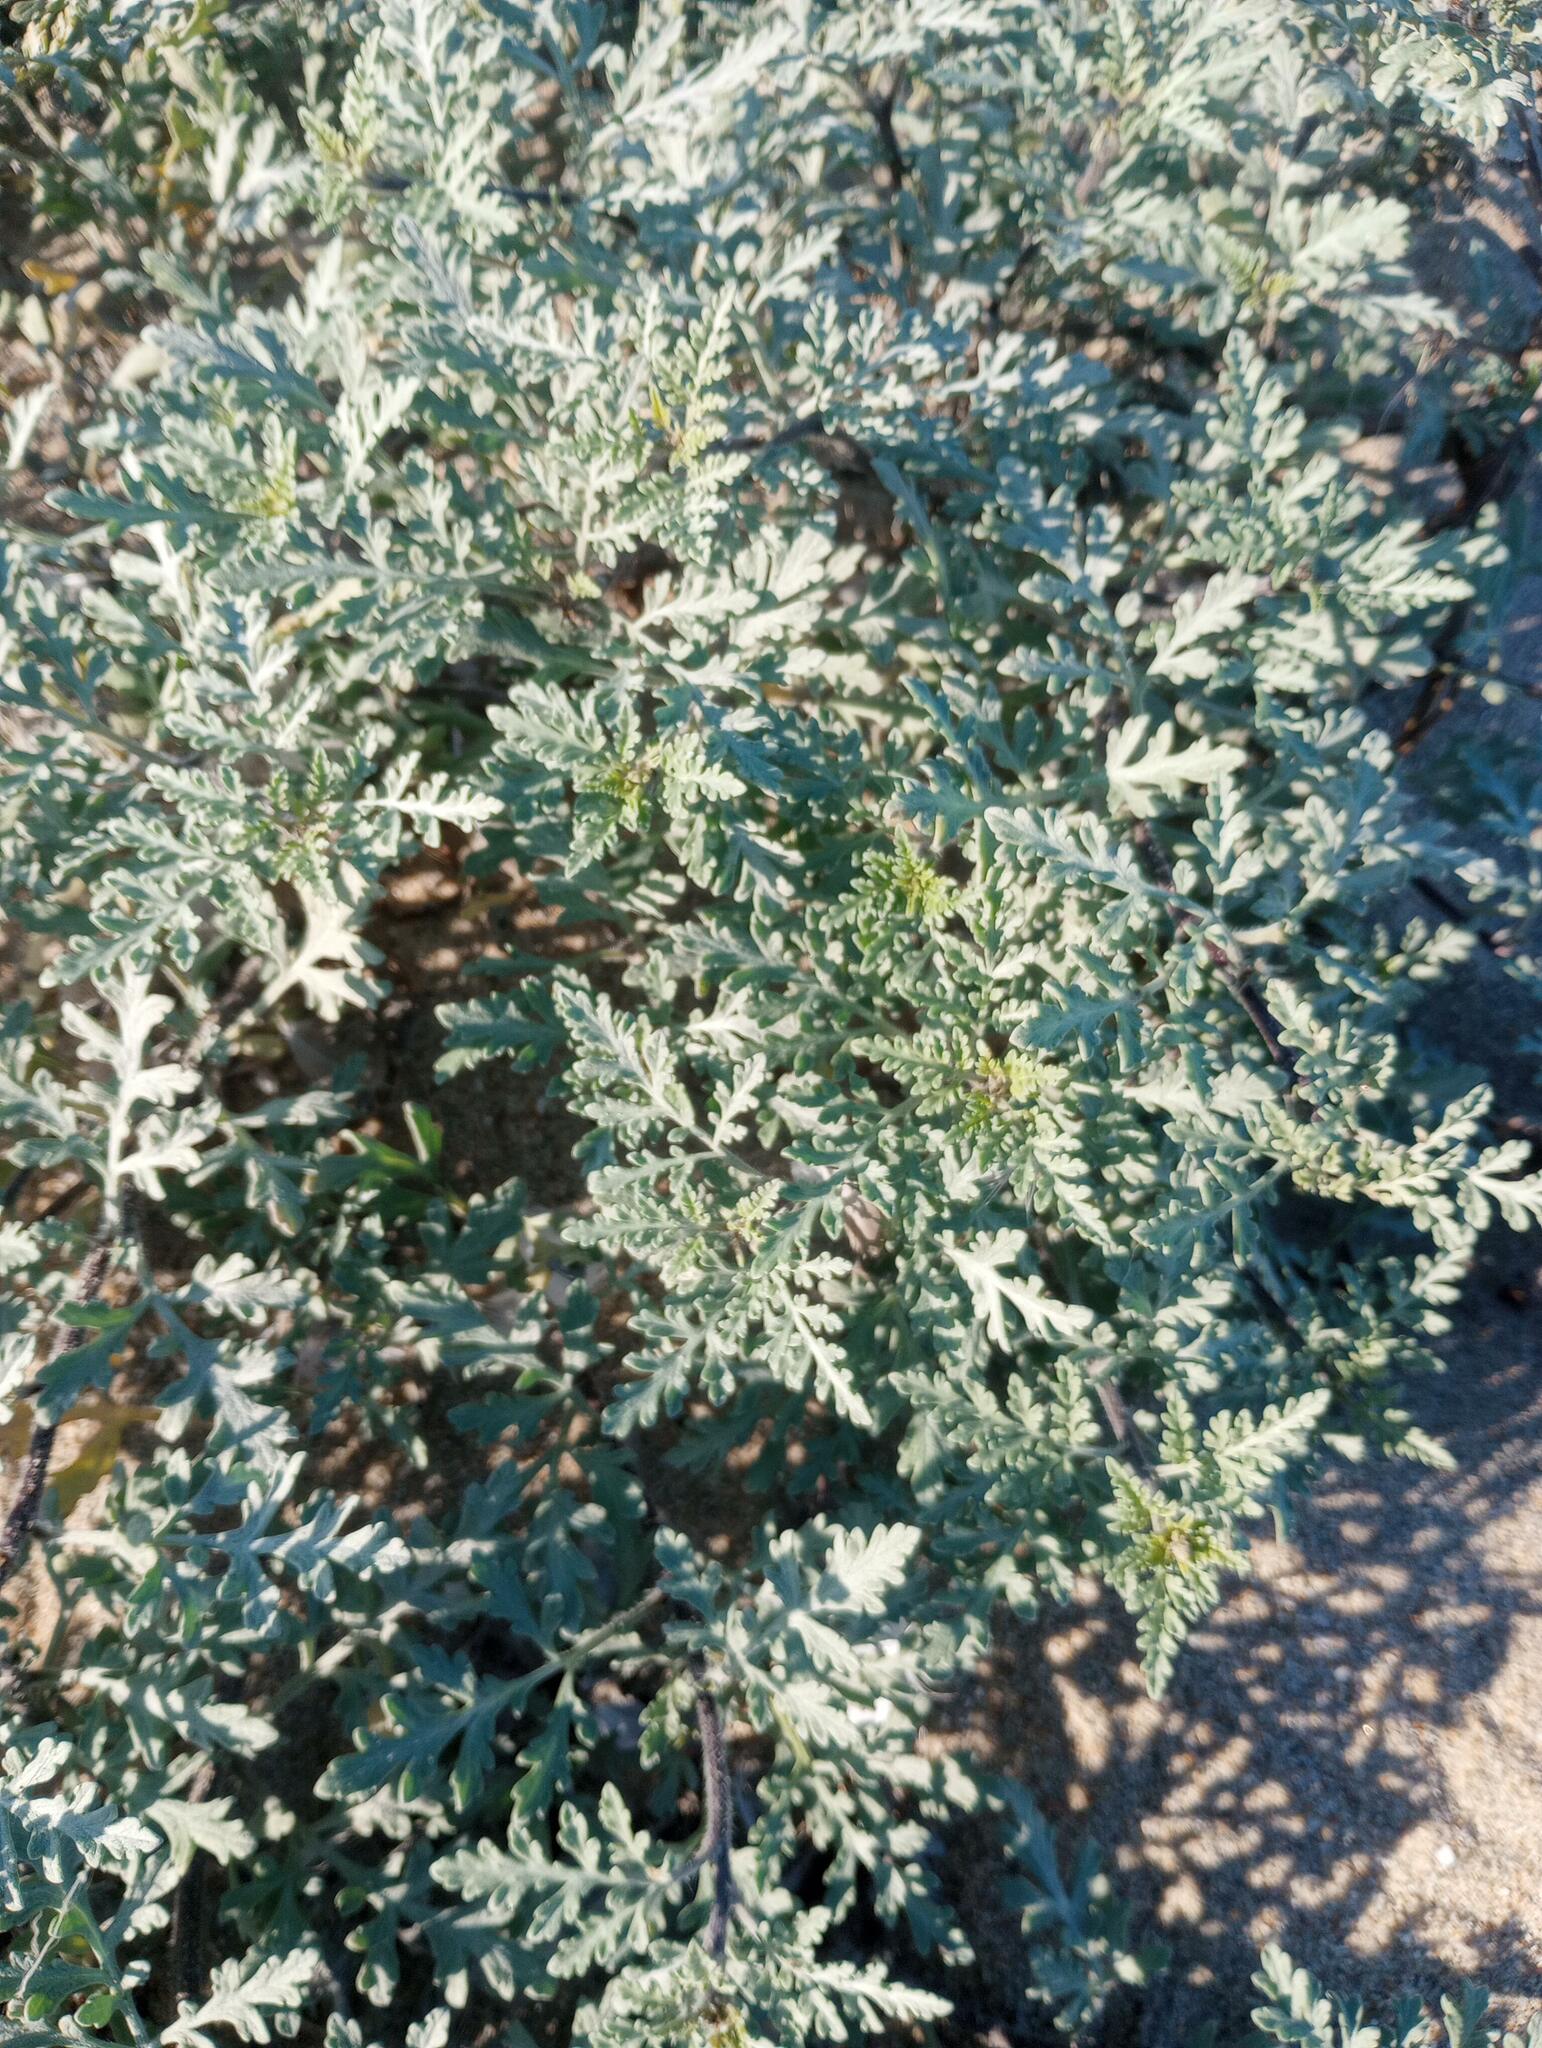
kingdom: Plantae
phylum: Tracheophyta
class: Magnoliopsida
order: Asterales
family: Asteraceae
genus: Ambrosia
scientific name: Ambrosia chamissonis
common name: Beachbur
